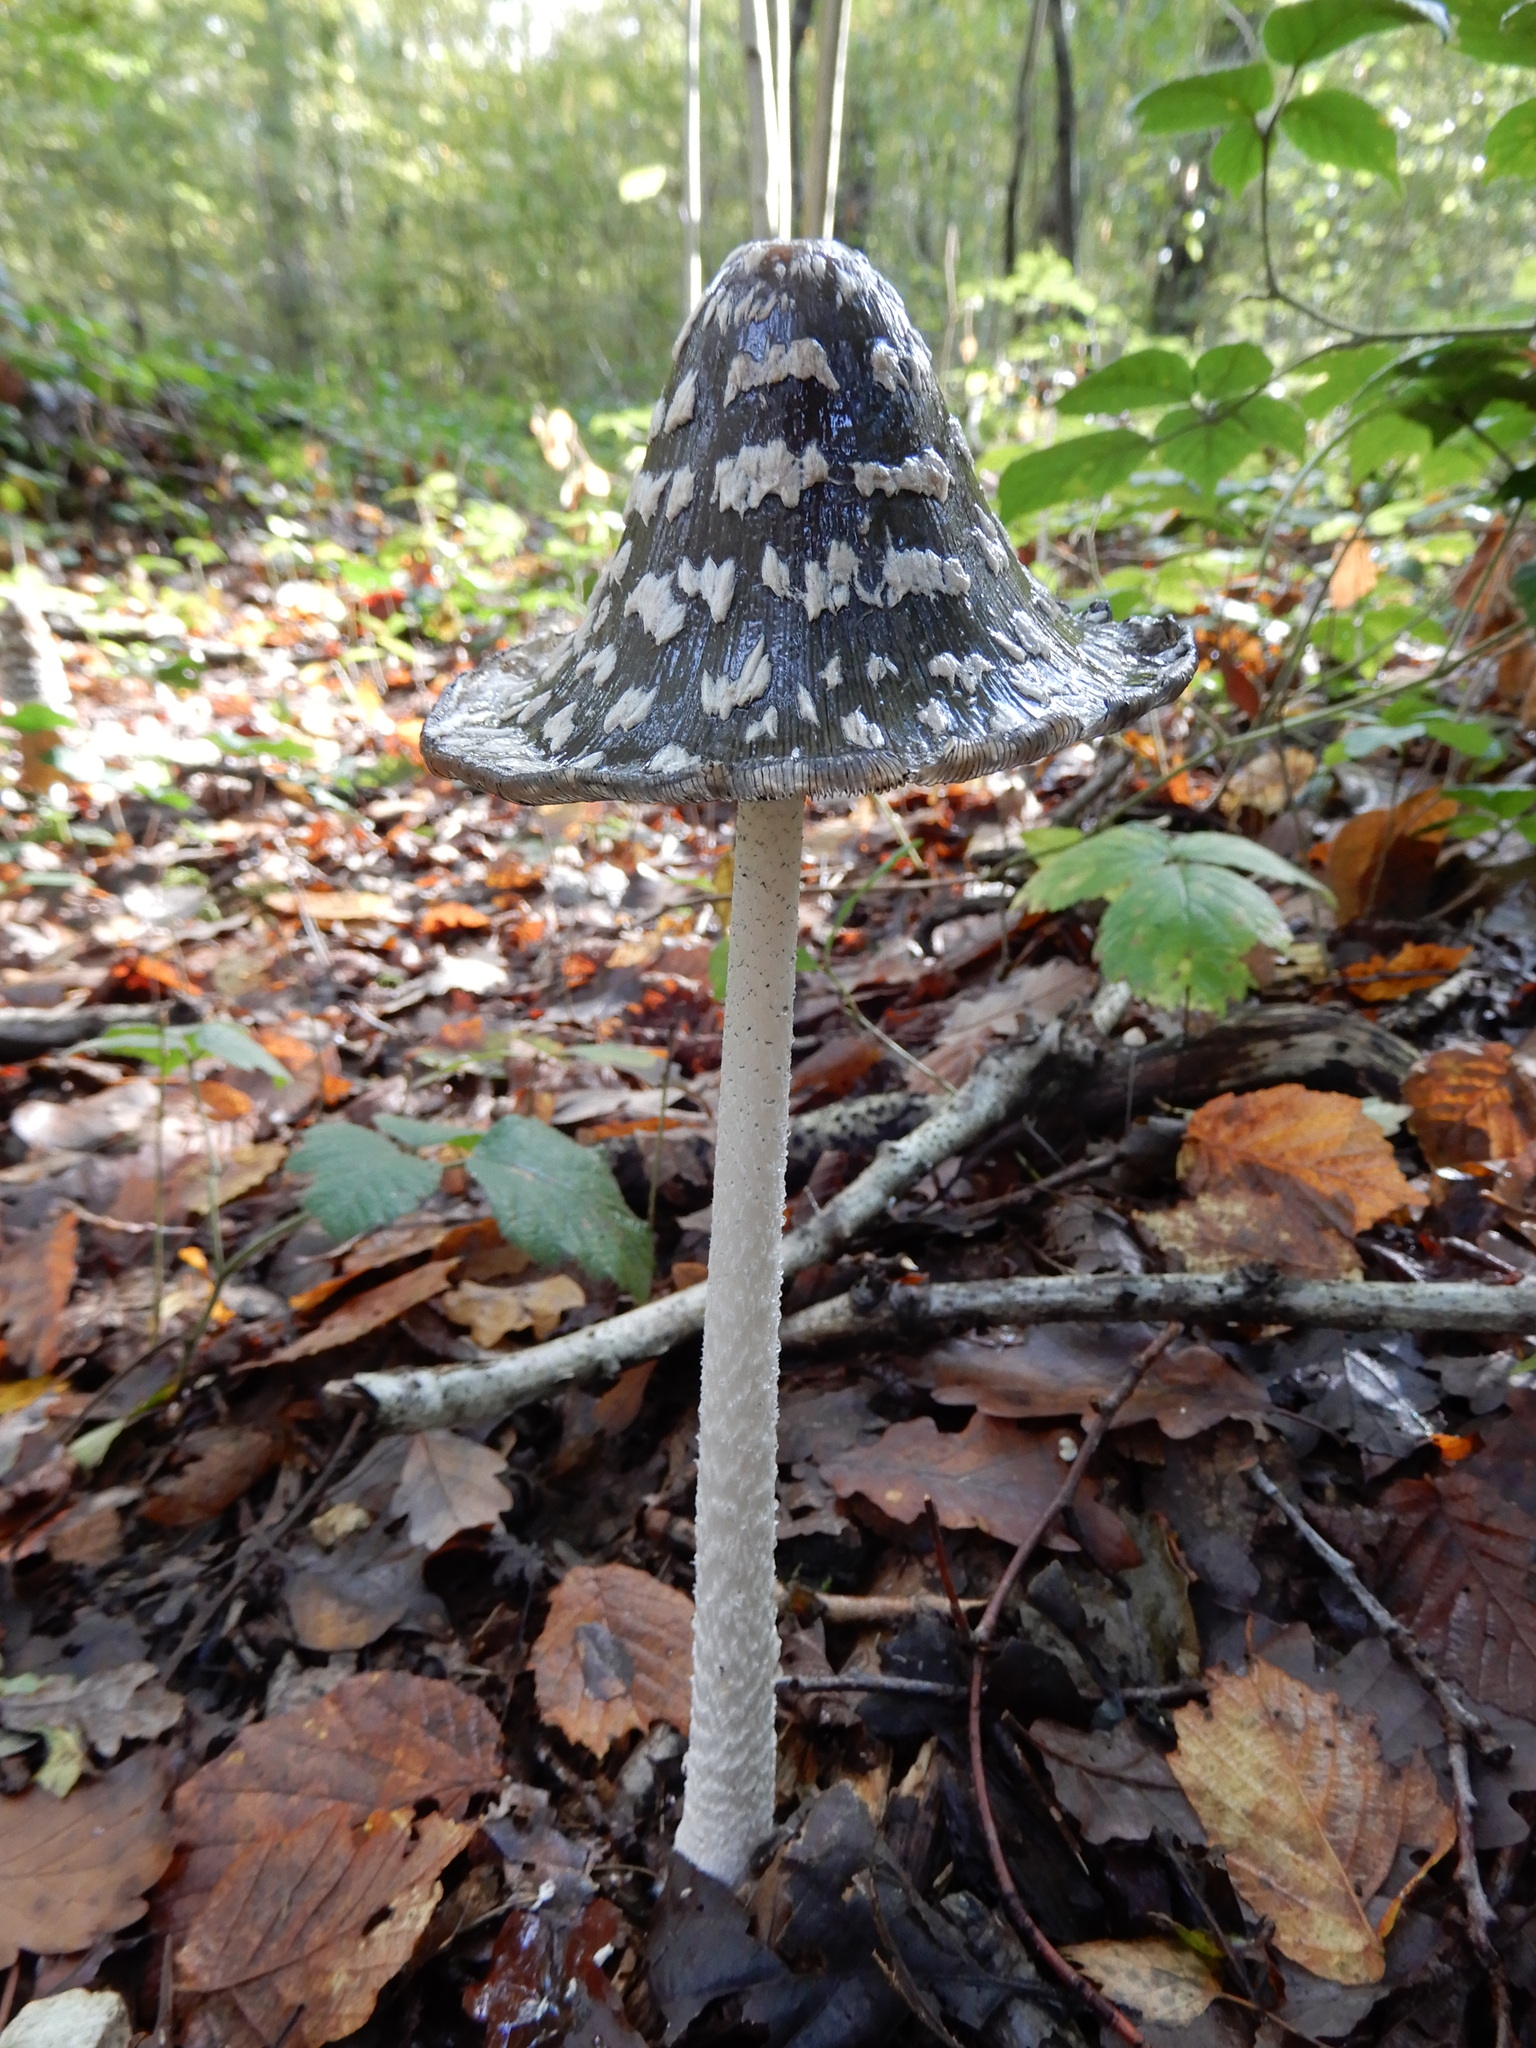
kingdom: Fungi
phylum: Basidiomycota
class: Agaricomycetes
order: Agaricales
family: Psathyrellaceae
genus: Coprinopsis
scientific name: Coprinopsis picacea
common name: Magpie inkcap
